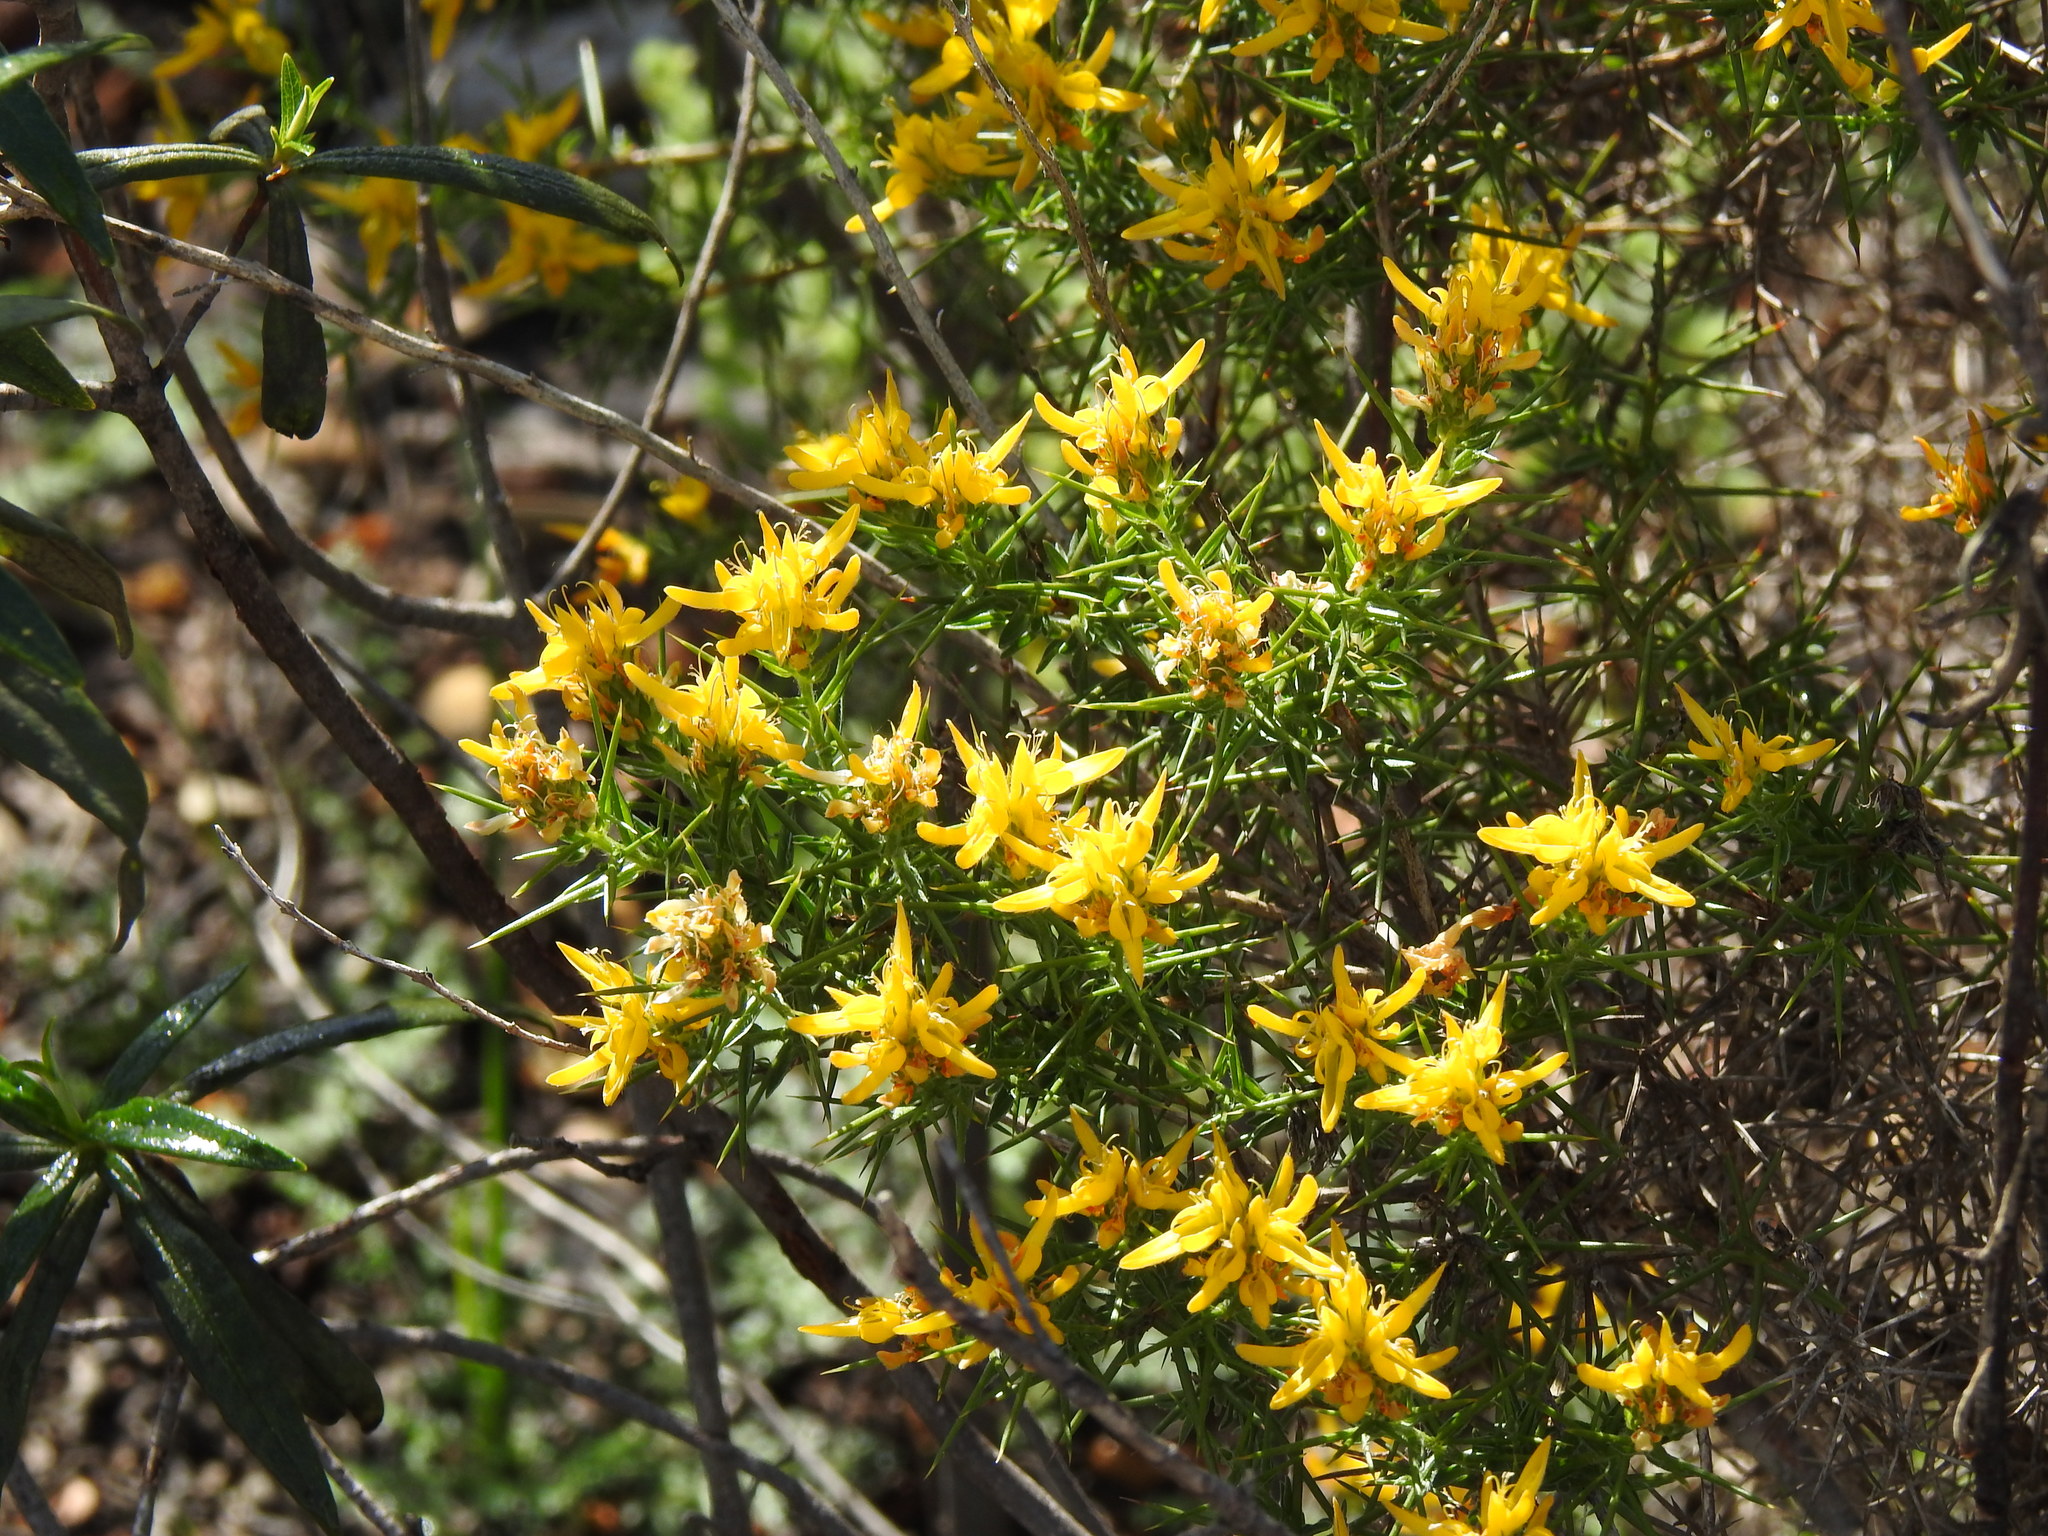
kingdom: Plantae
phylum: Tracheophyta
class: Magnoliopsida
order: Fabales
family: Fabaceae
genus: Genista
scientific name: Genista hirsuta
